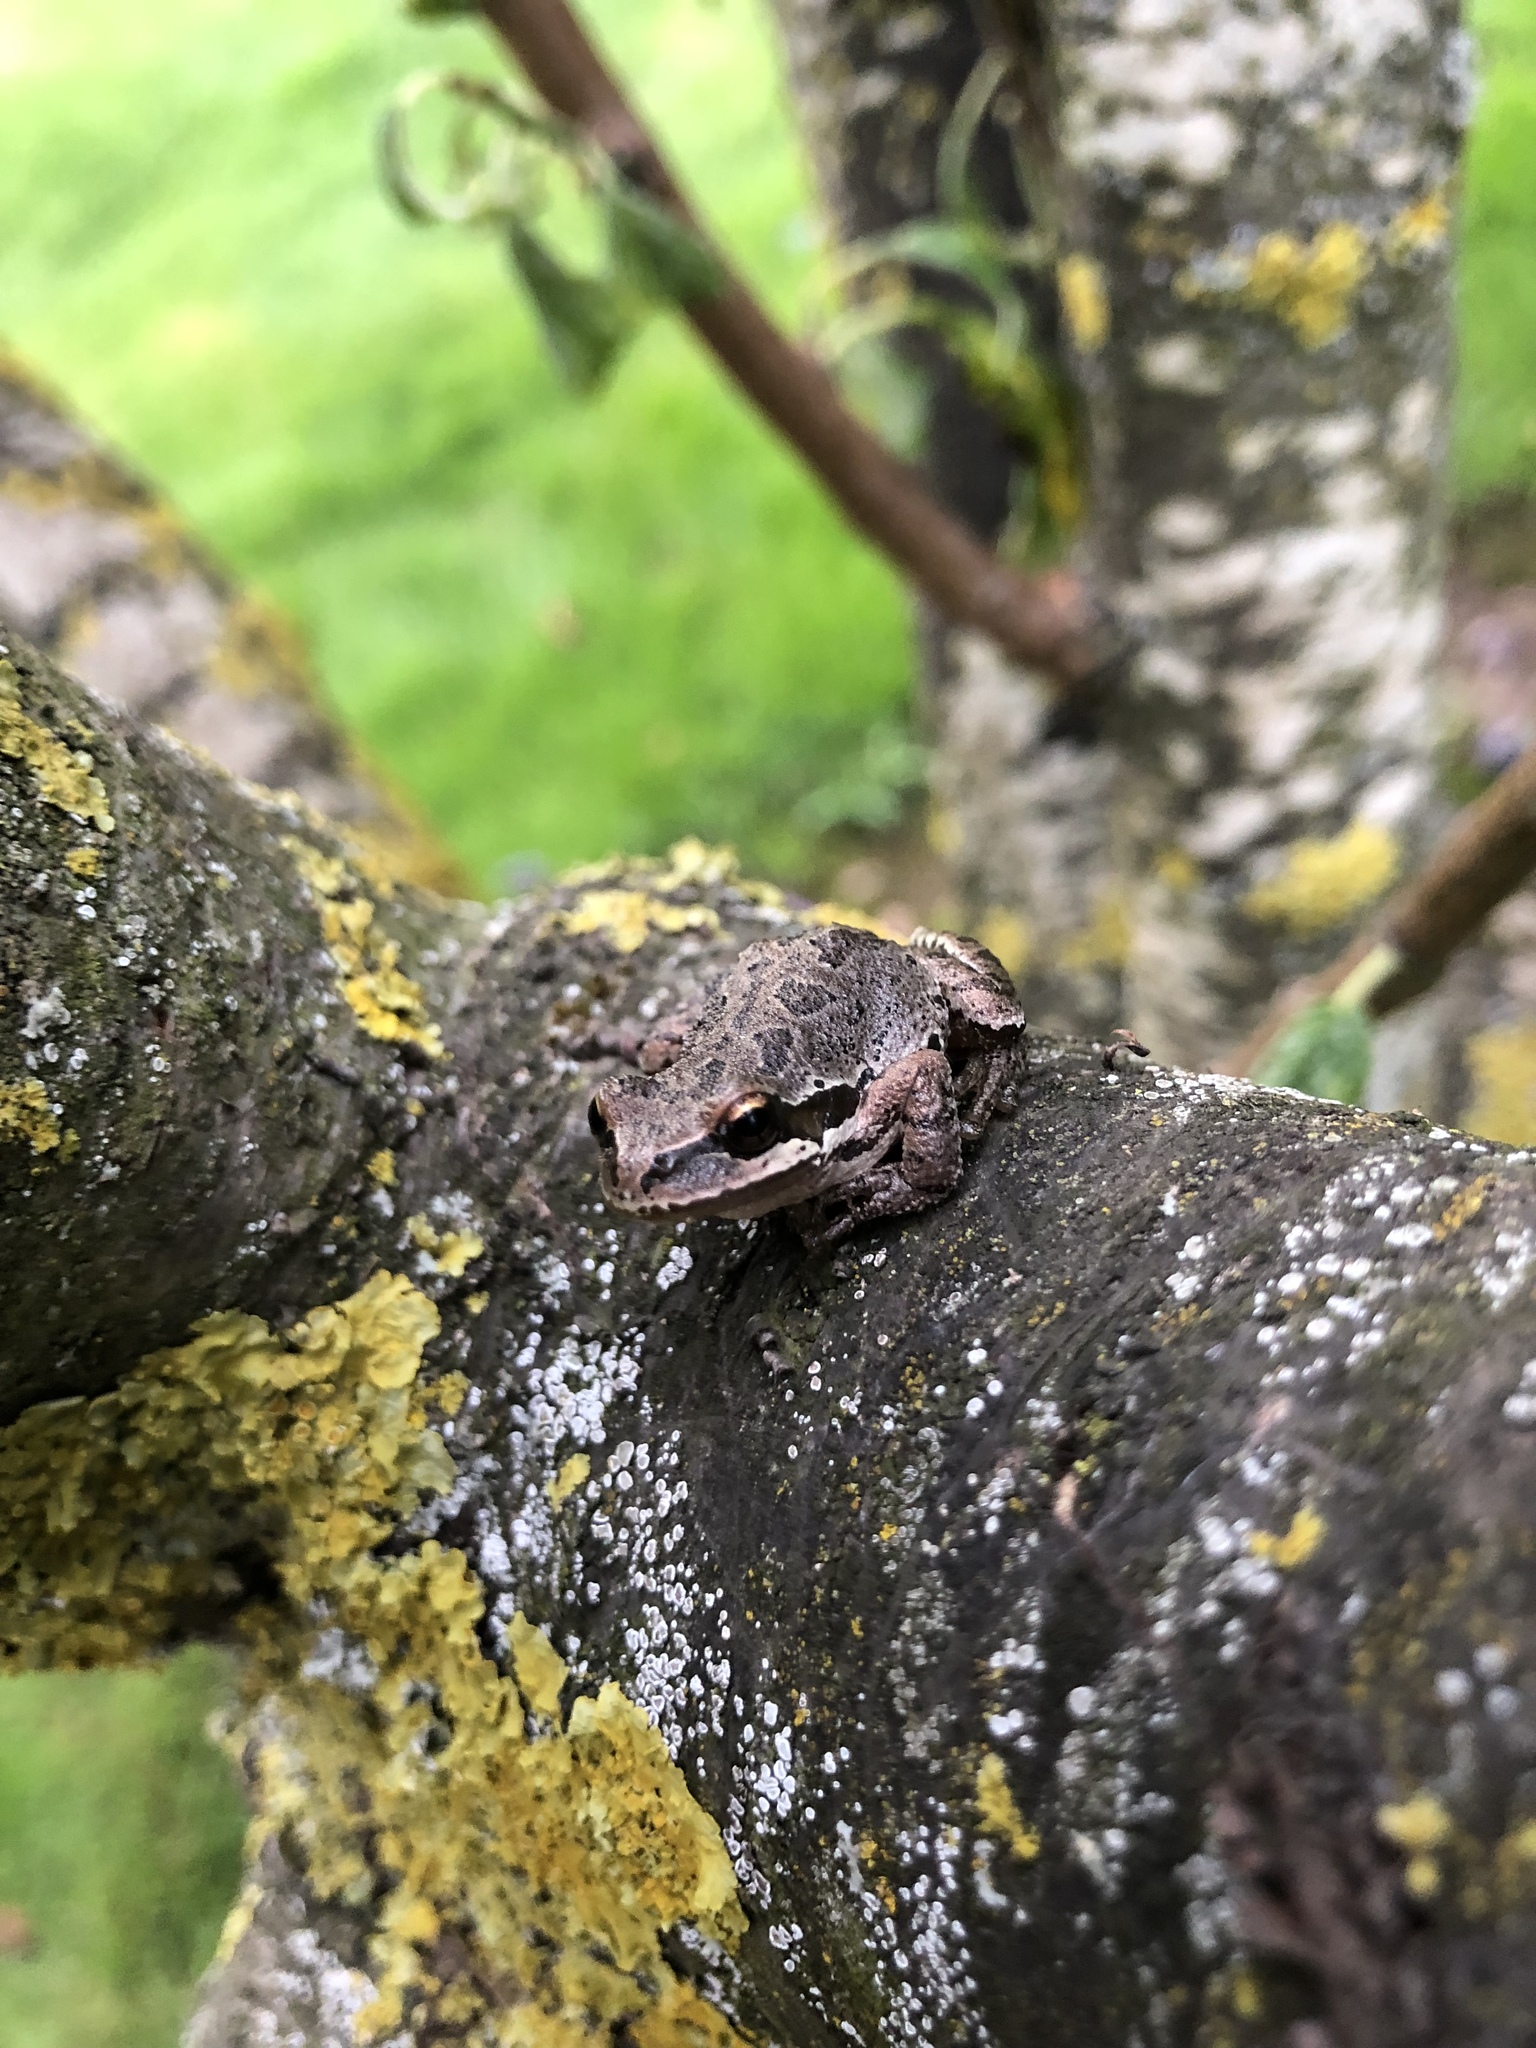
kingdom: Animalia
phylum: Chordata
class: Amphibia
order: Anura
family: Hylidae
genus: Pseudacris
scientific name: Pseudacris regilla
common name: Pacific chorus frog
